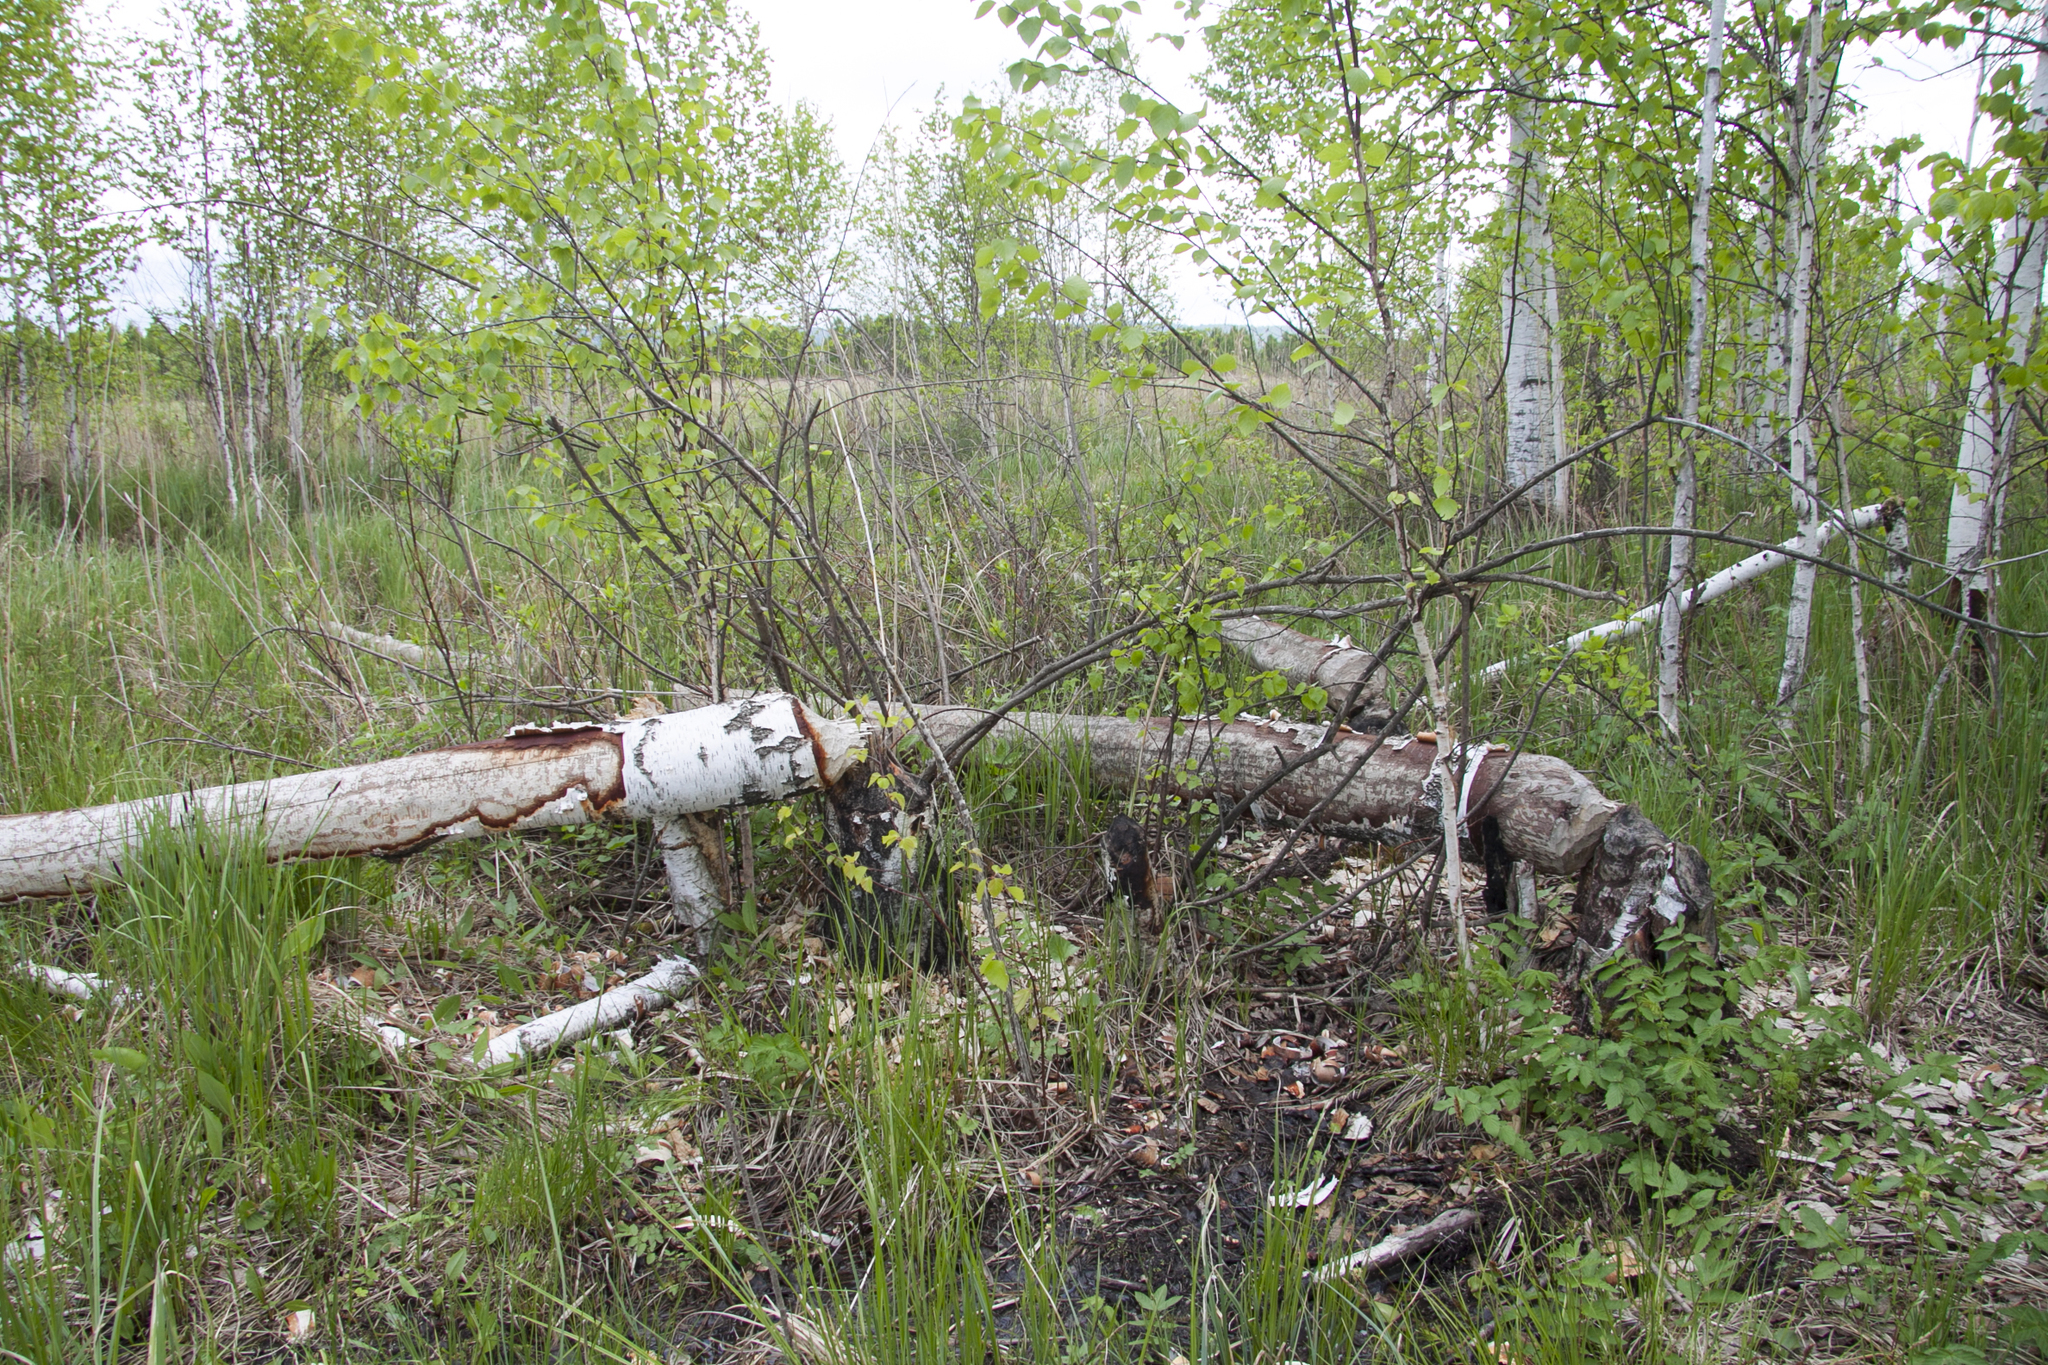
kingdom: Animalia
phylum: Chordata
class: Mammalia
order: Rodentia
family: Castoridae
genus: Castor
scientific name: Castor fiber
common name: Eurasian beaver
